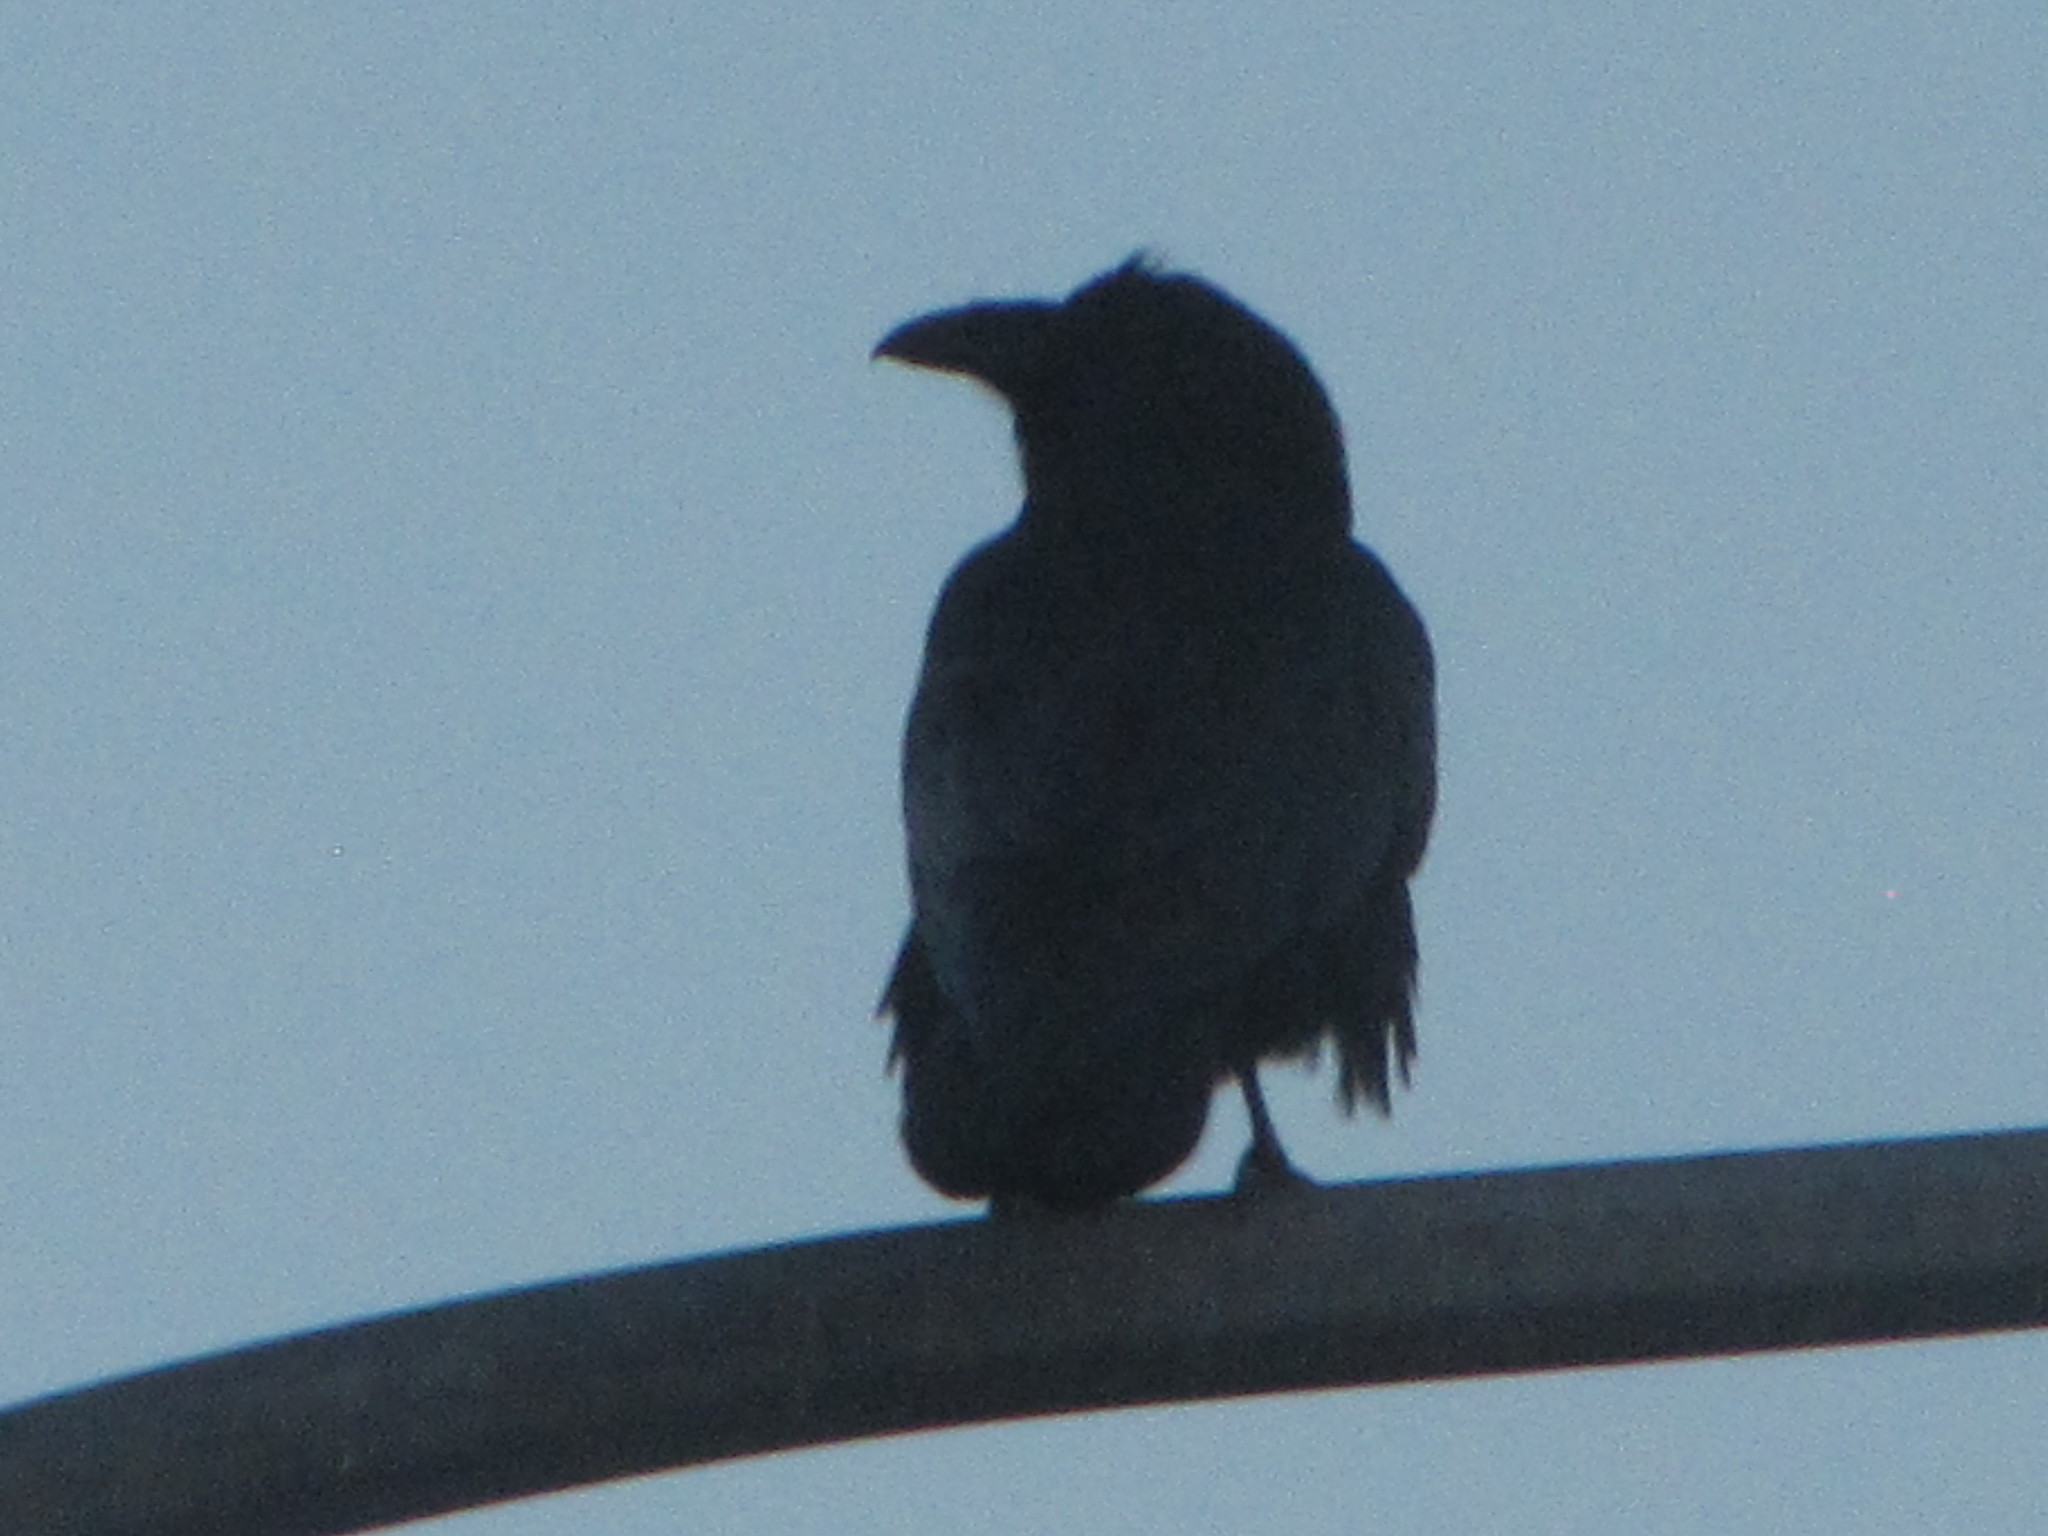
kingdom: Animalia
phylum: Chordata
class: Aves
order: Passeriformes
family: Corvidae
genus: Corvus
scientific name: Corvus corax
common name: Common raven
